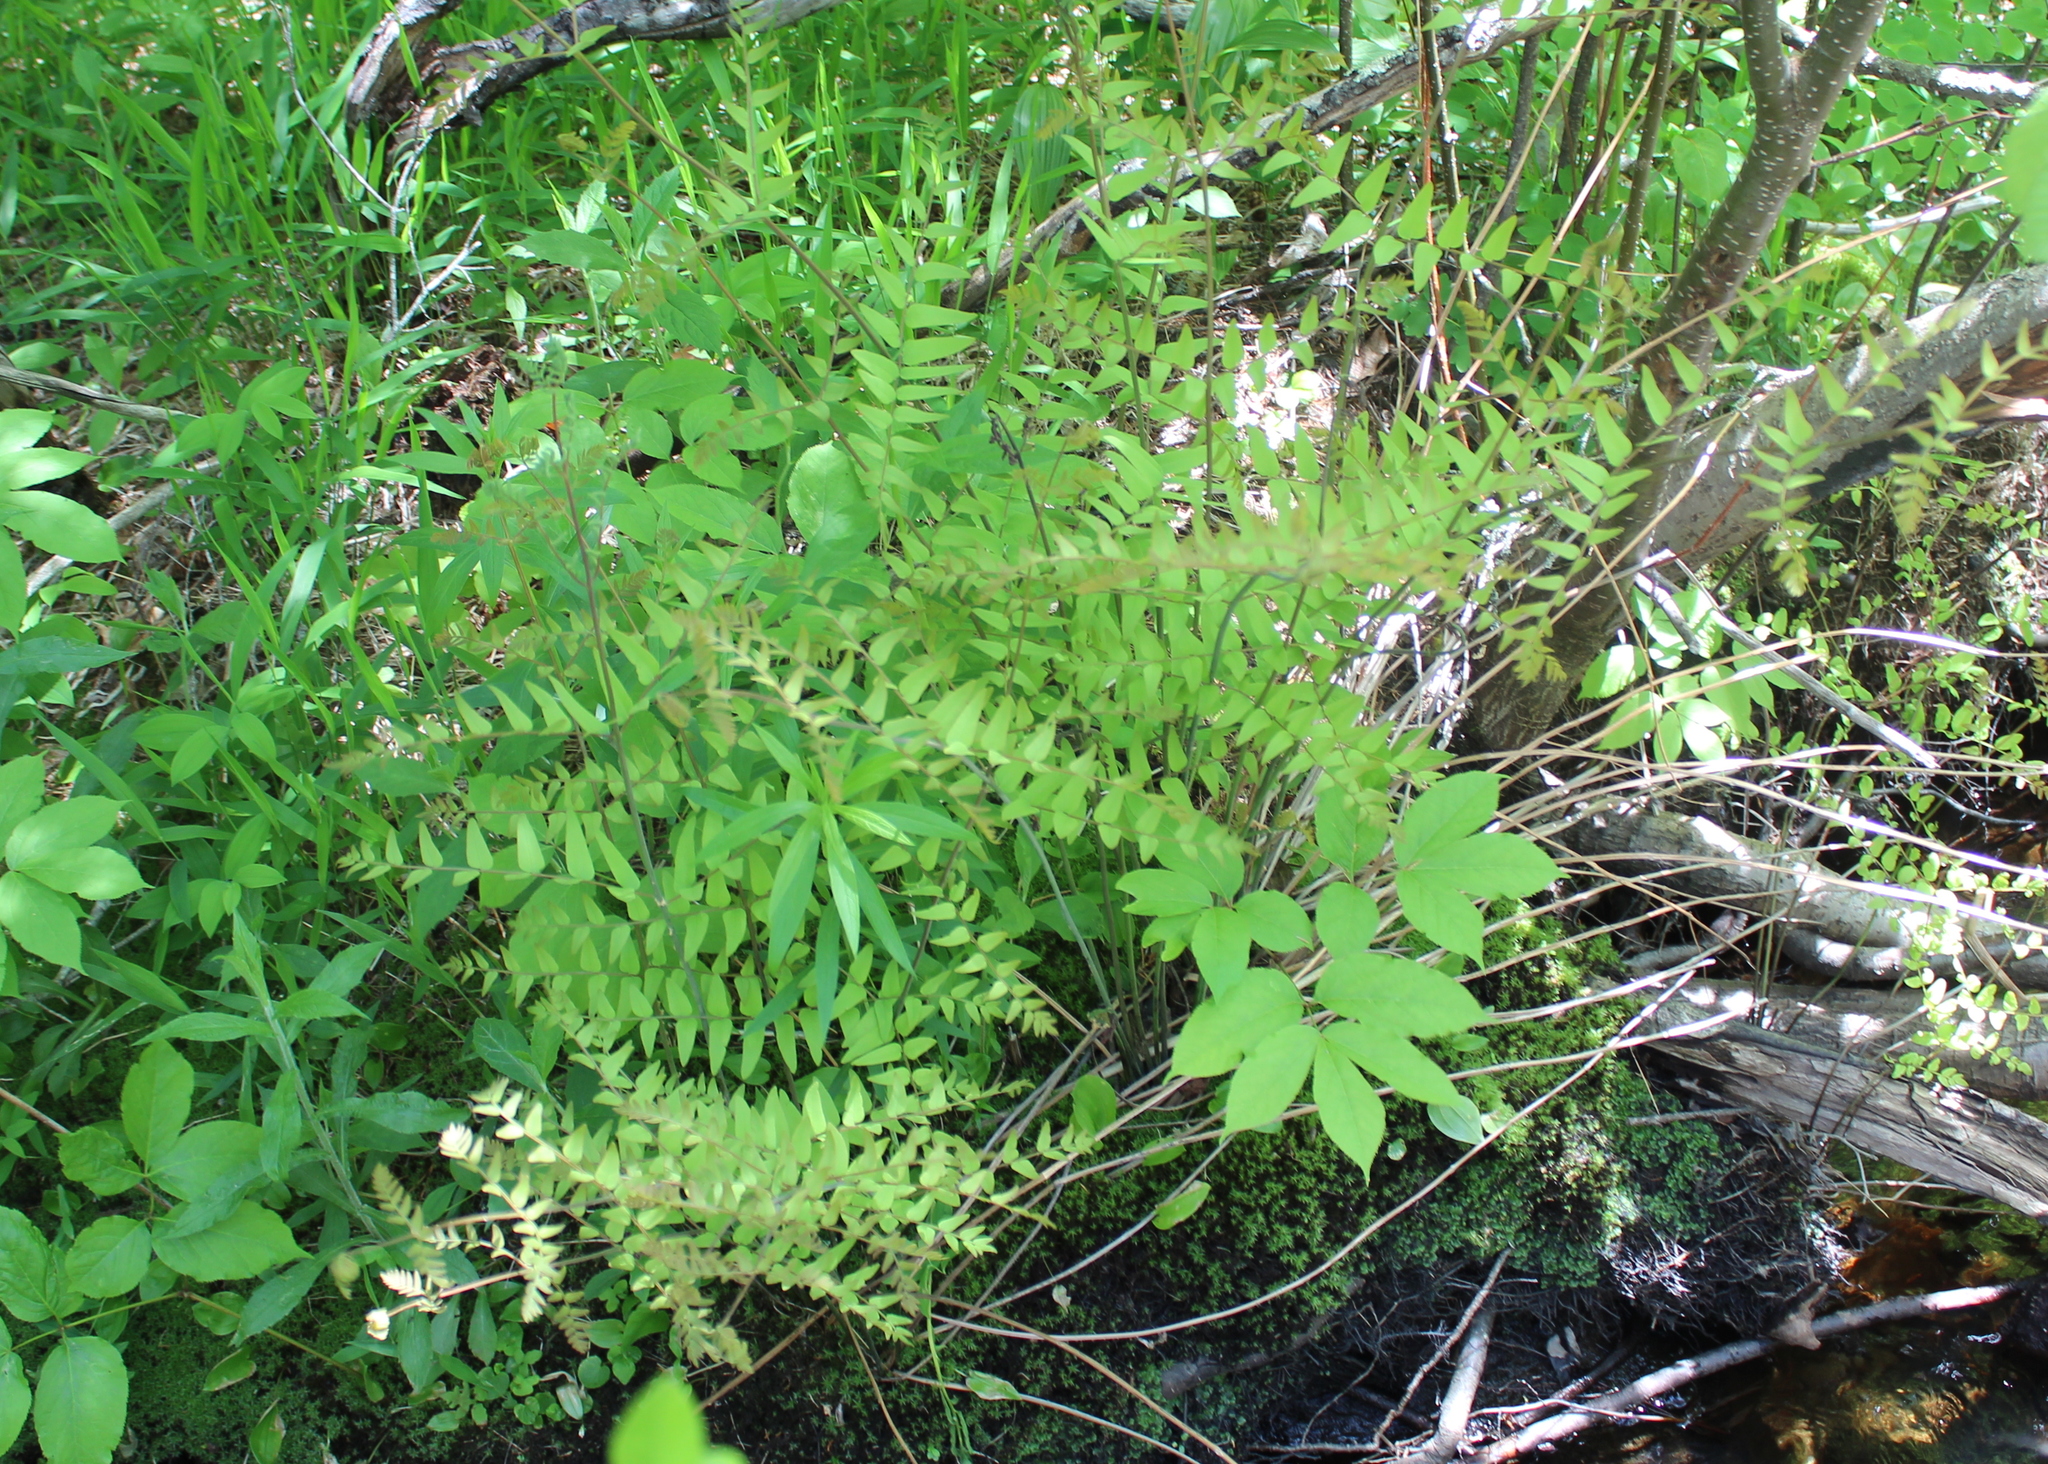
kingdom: Plantae
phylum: Tracheophyta
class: Polypodiopsida
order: Osmundales
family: Osmundaceae
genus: Osmunda
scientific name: Osmunda spectabilis
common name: American royal fern
